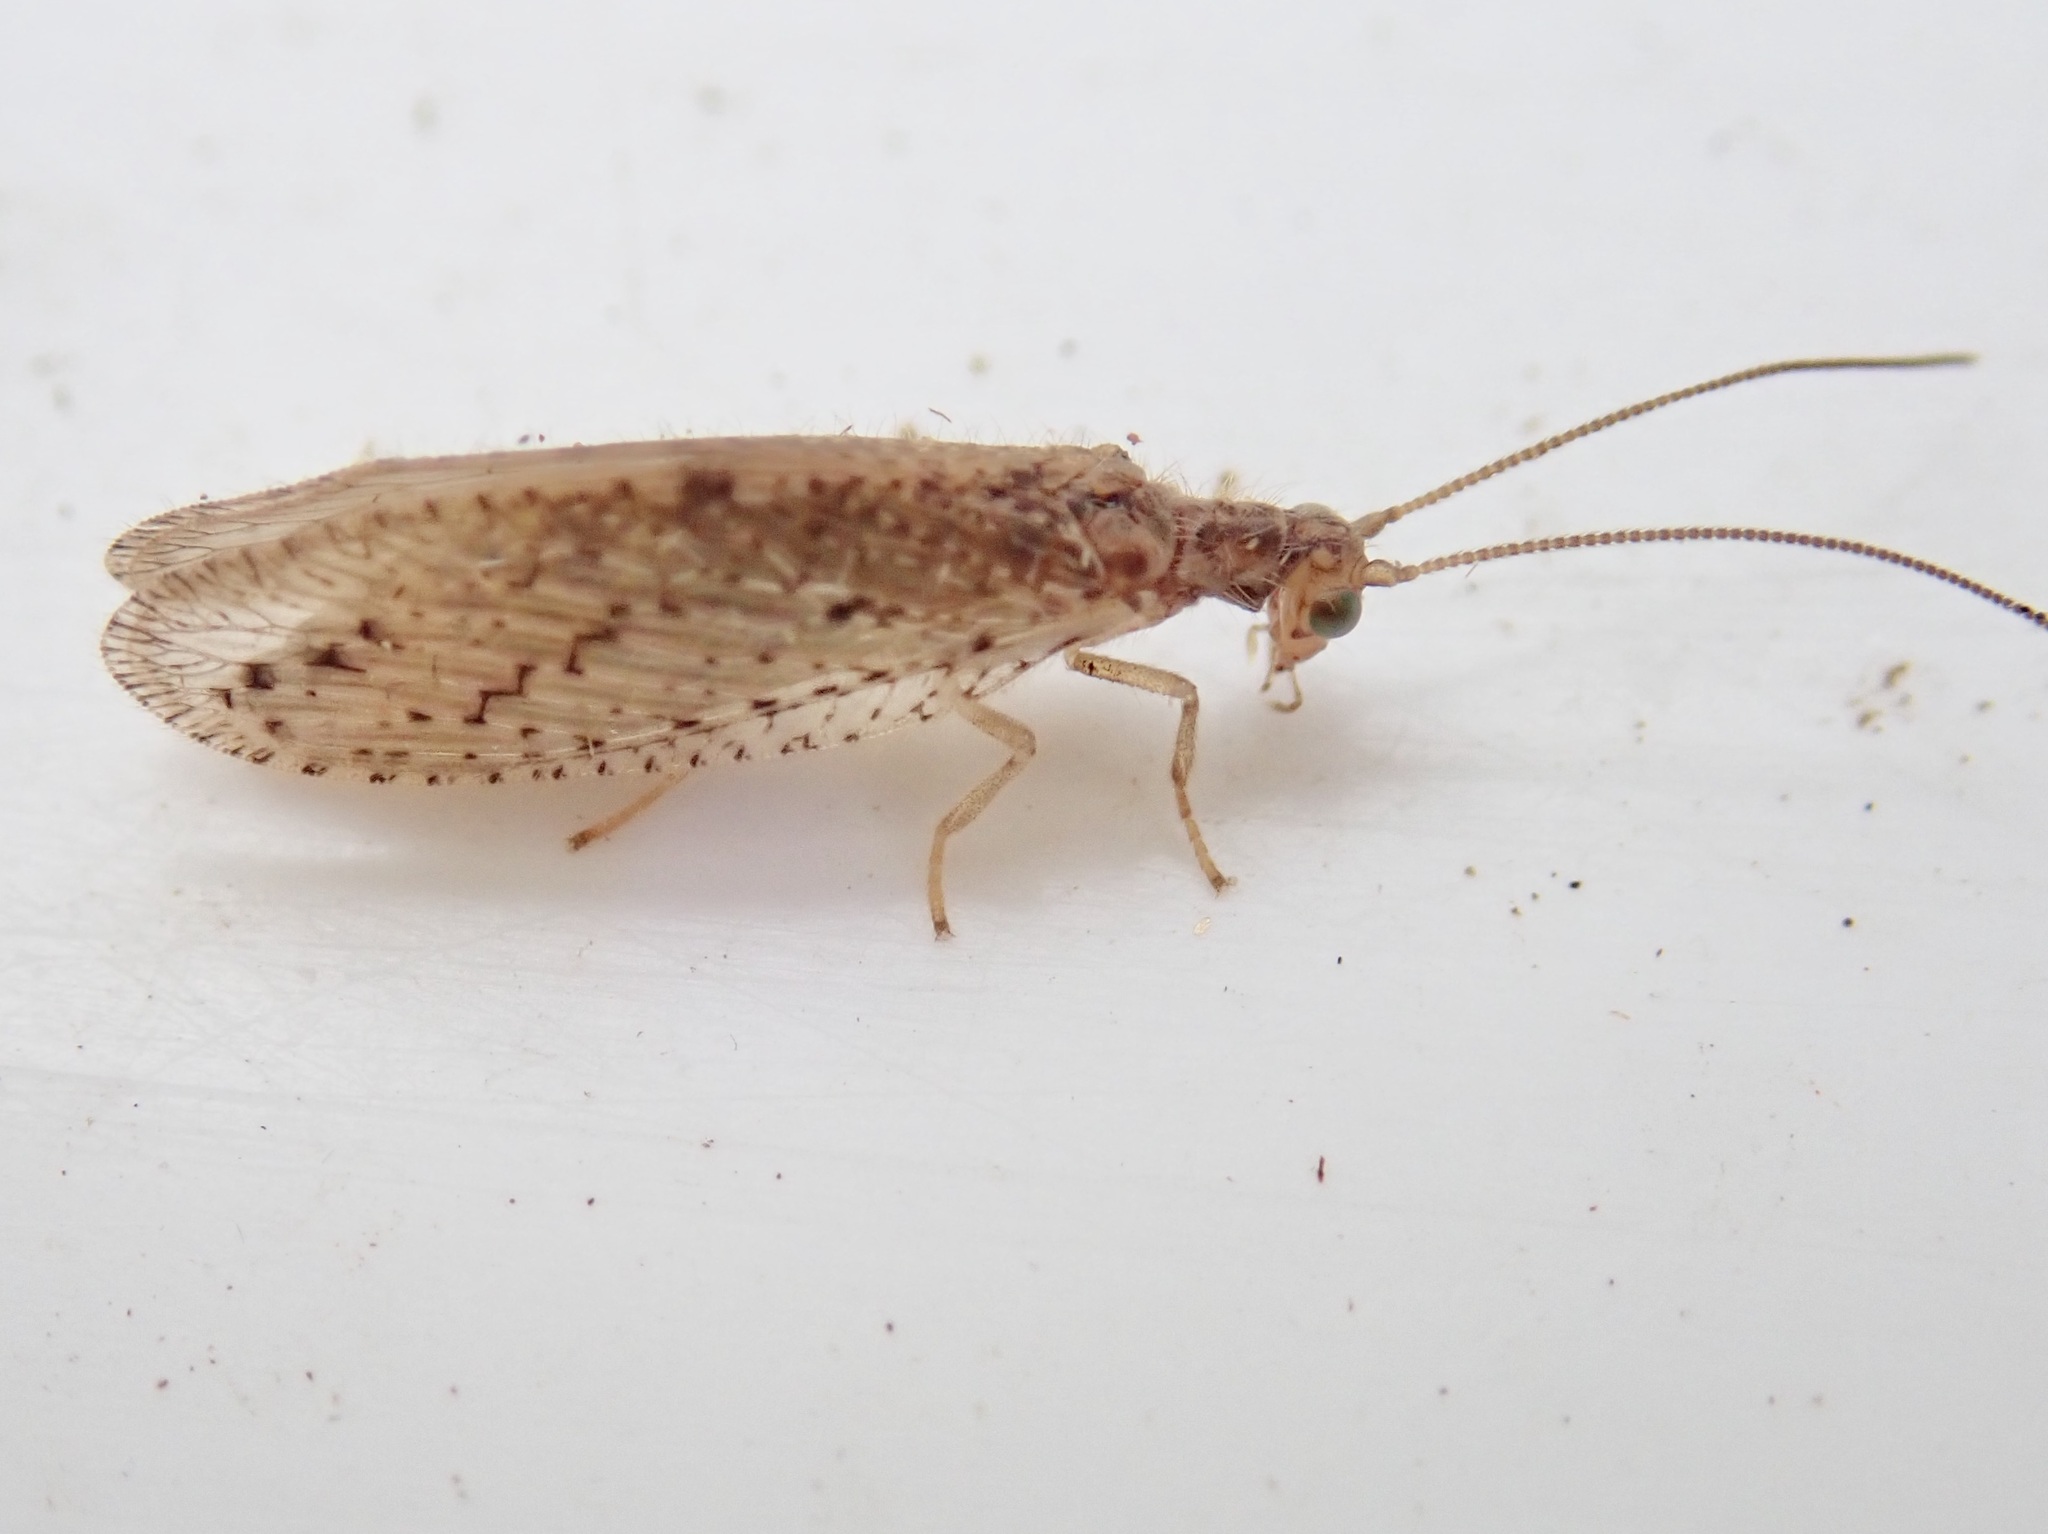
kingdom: Animalia
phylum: Arthropoda
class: Insecta
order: Neuroptera
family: Hemerobiidae
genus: Micromus
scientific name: Micromus tasmaniae
